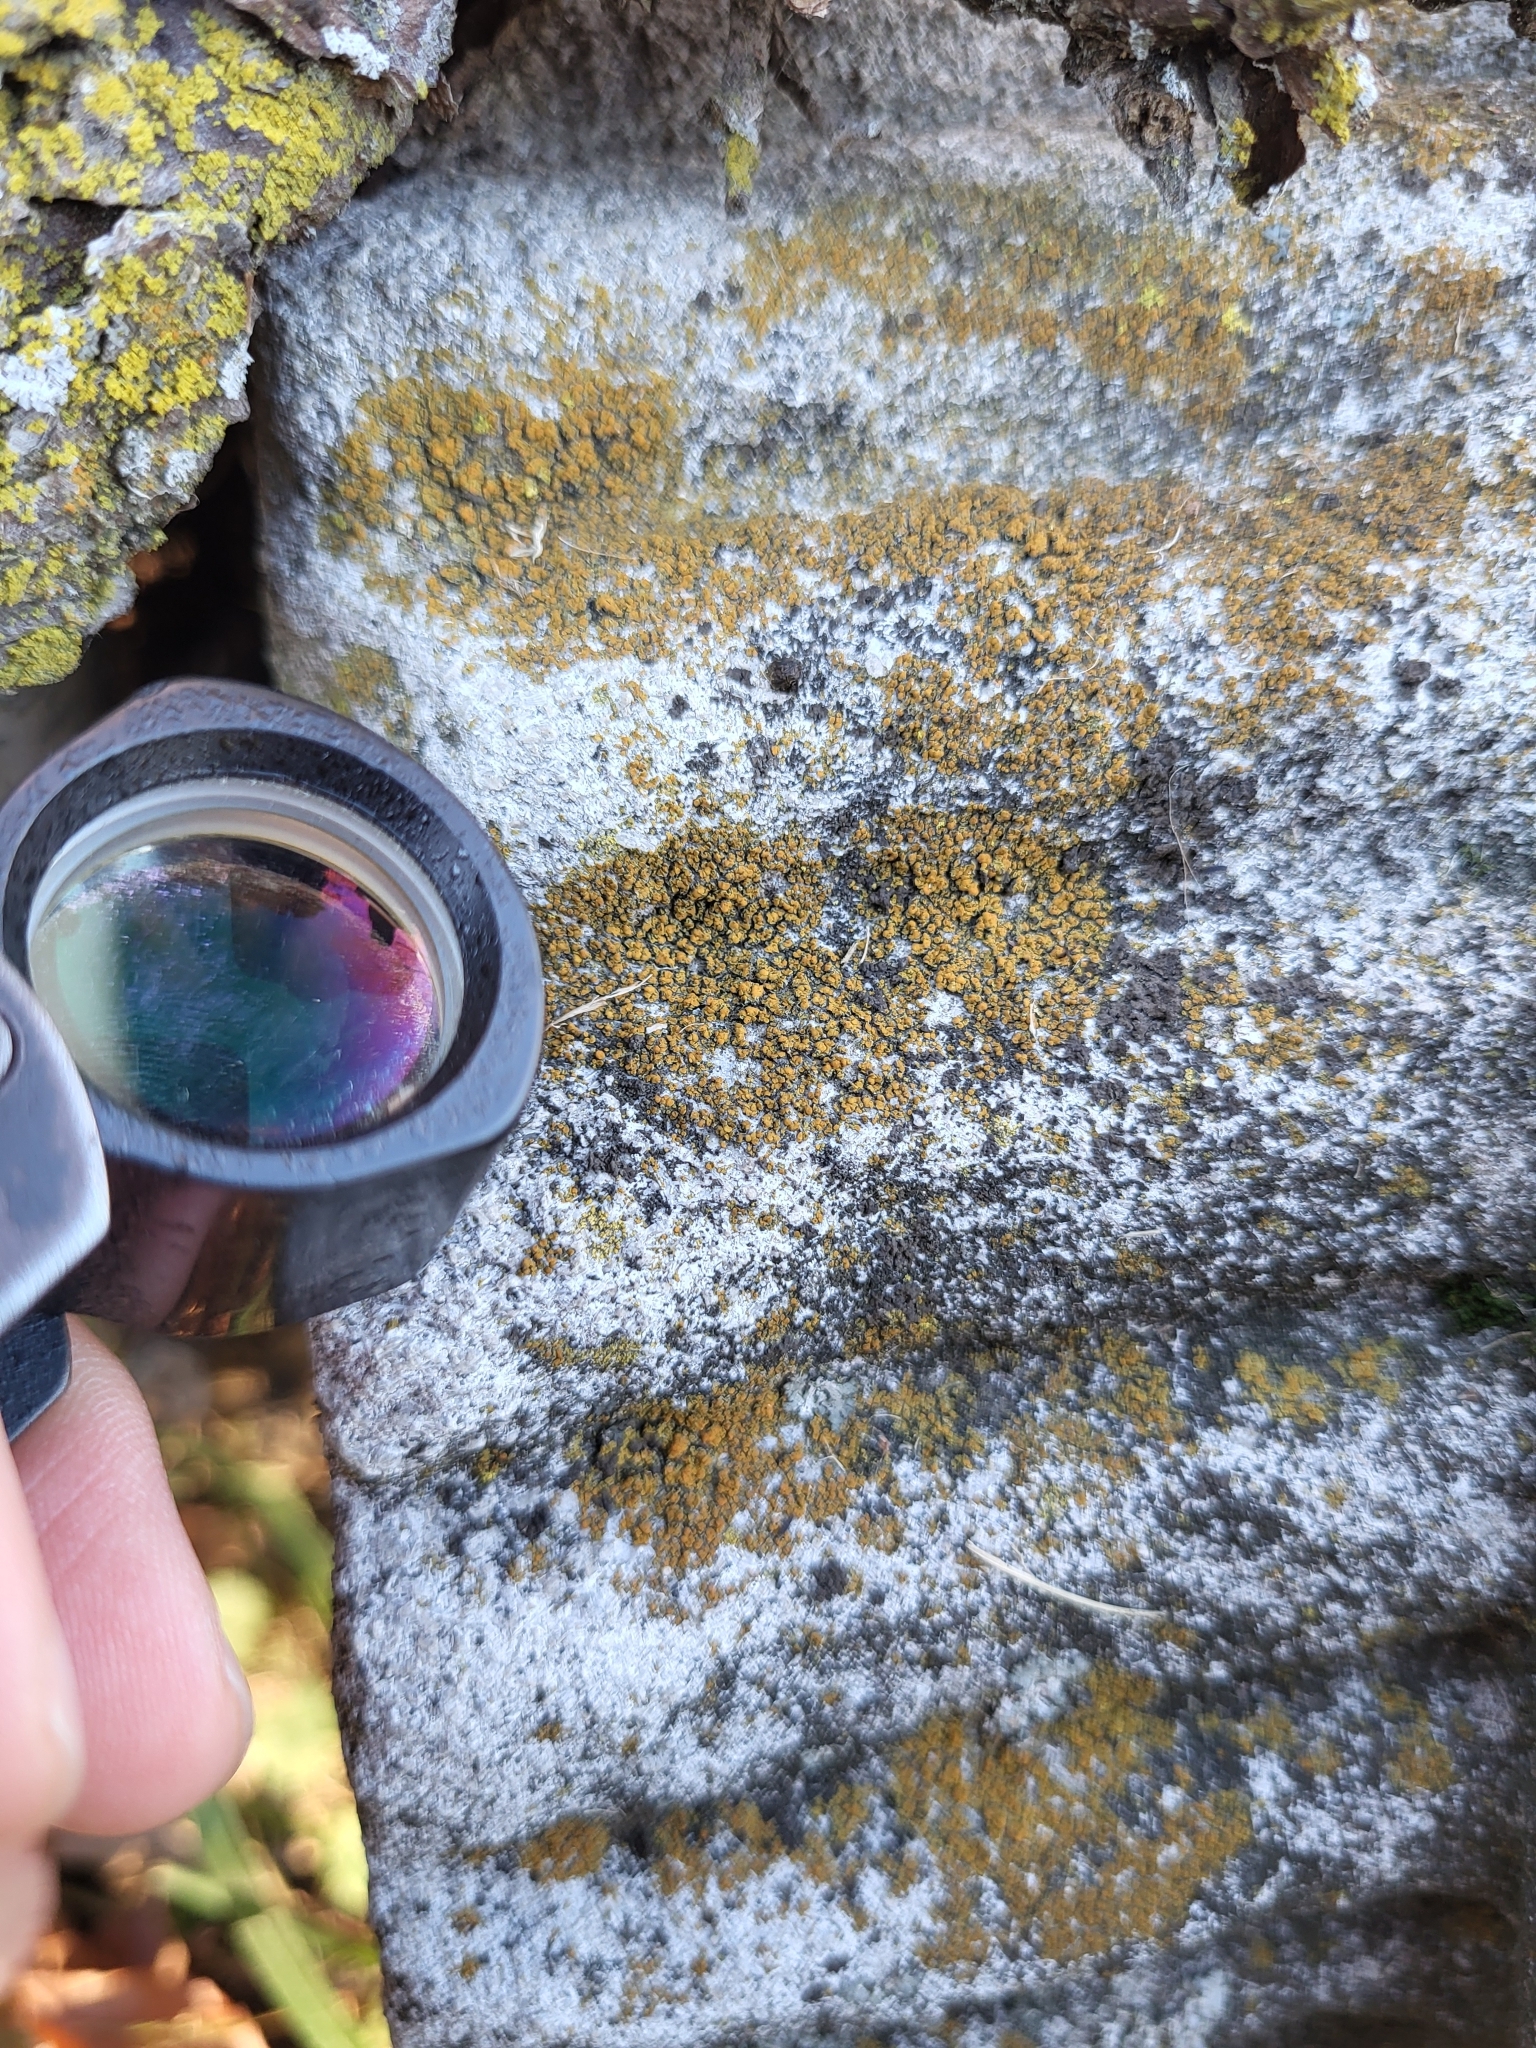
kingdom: Fungi
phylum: Ascomycota
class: Lecanoromycetes
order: Teloschistales
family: Teloschistaceae
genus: Squamulea
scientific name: Squamulea subsoluta
